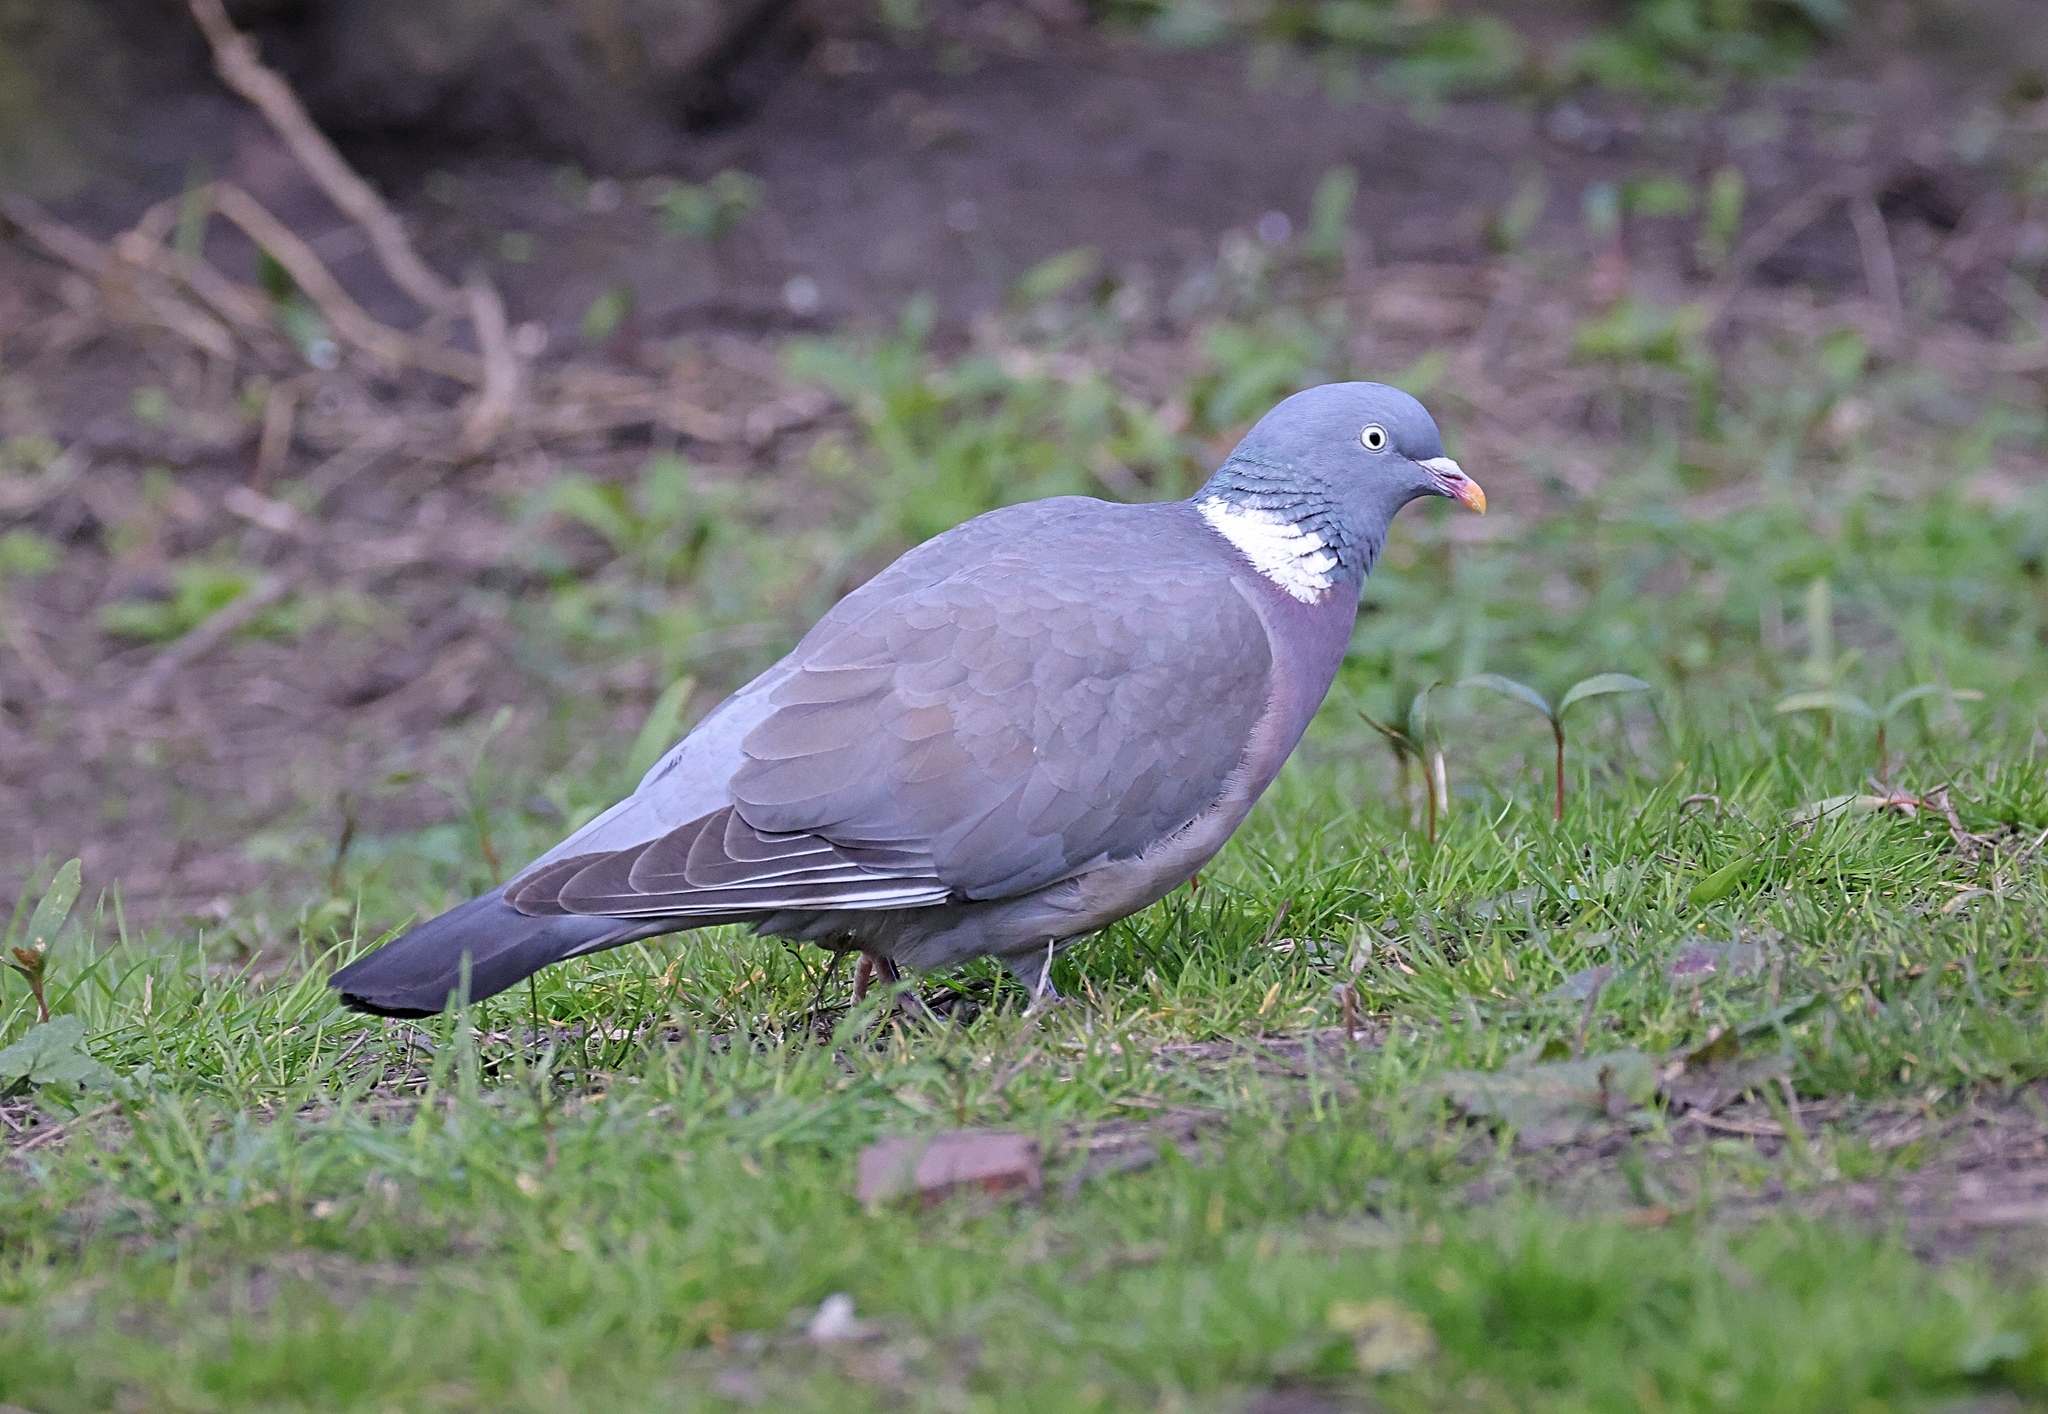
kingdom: Animalia
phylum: Chordata
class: Aves
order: Columbiformes
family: Columbidae
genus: Columba
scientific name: Columba palumbus
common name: Common wood pigeon
